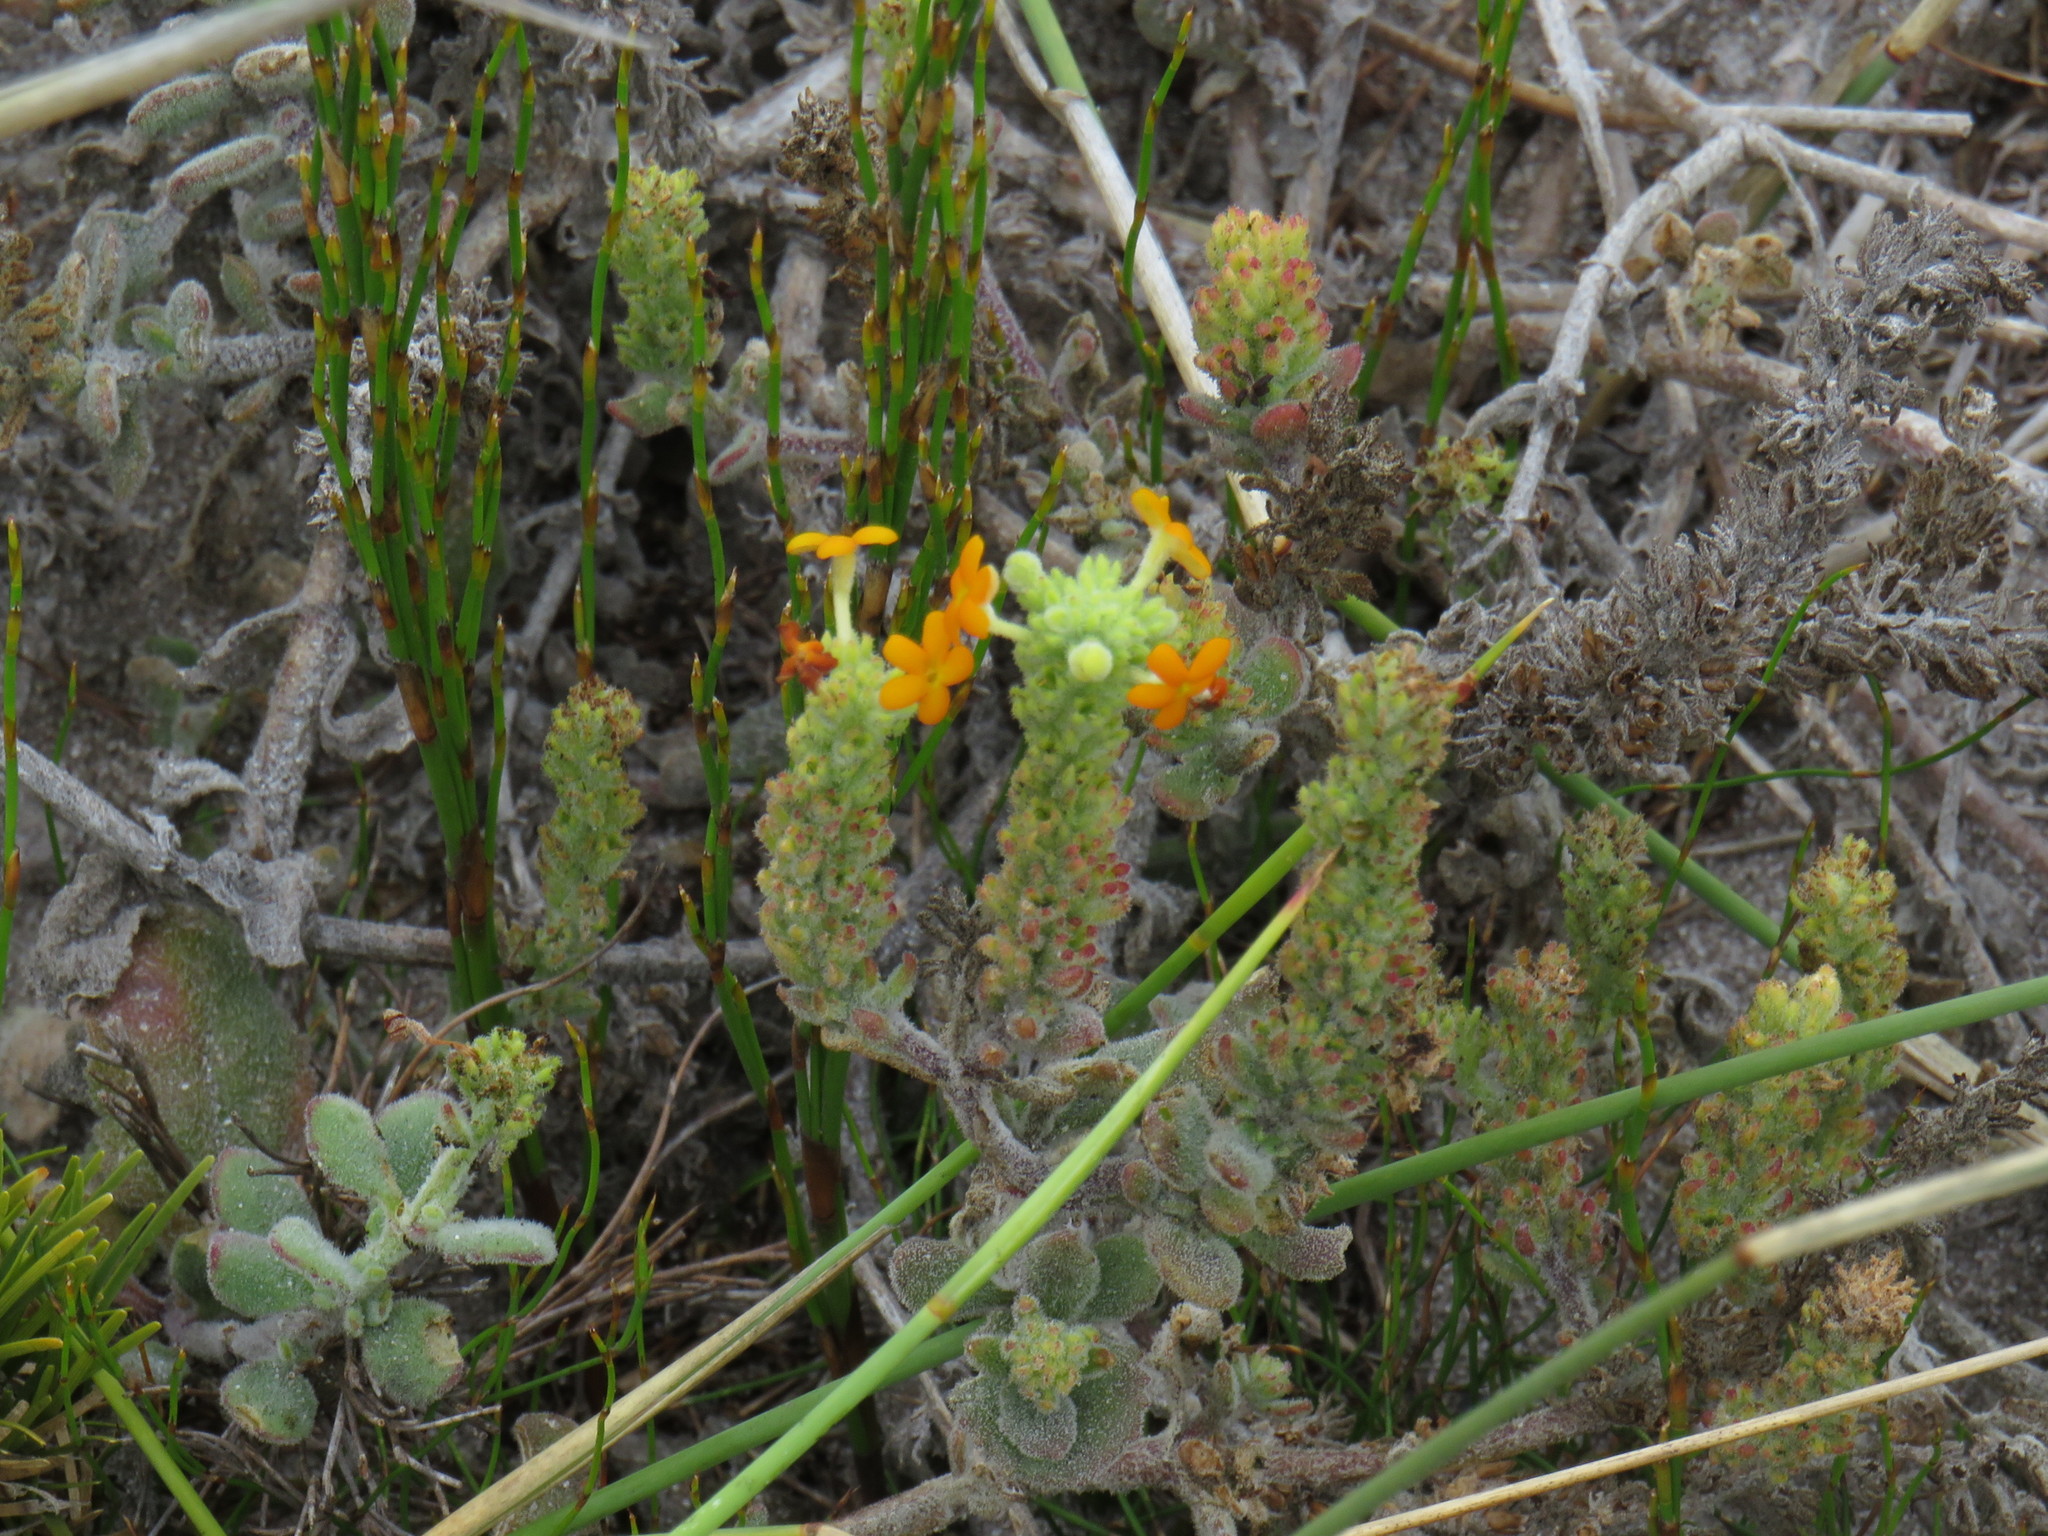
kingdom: Plantae
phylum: Tracheophyta
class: Magnoliopsida
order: Lamiales
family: Scrophulariaceae
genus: Manulea
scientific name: Manulea tomentosa
